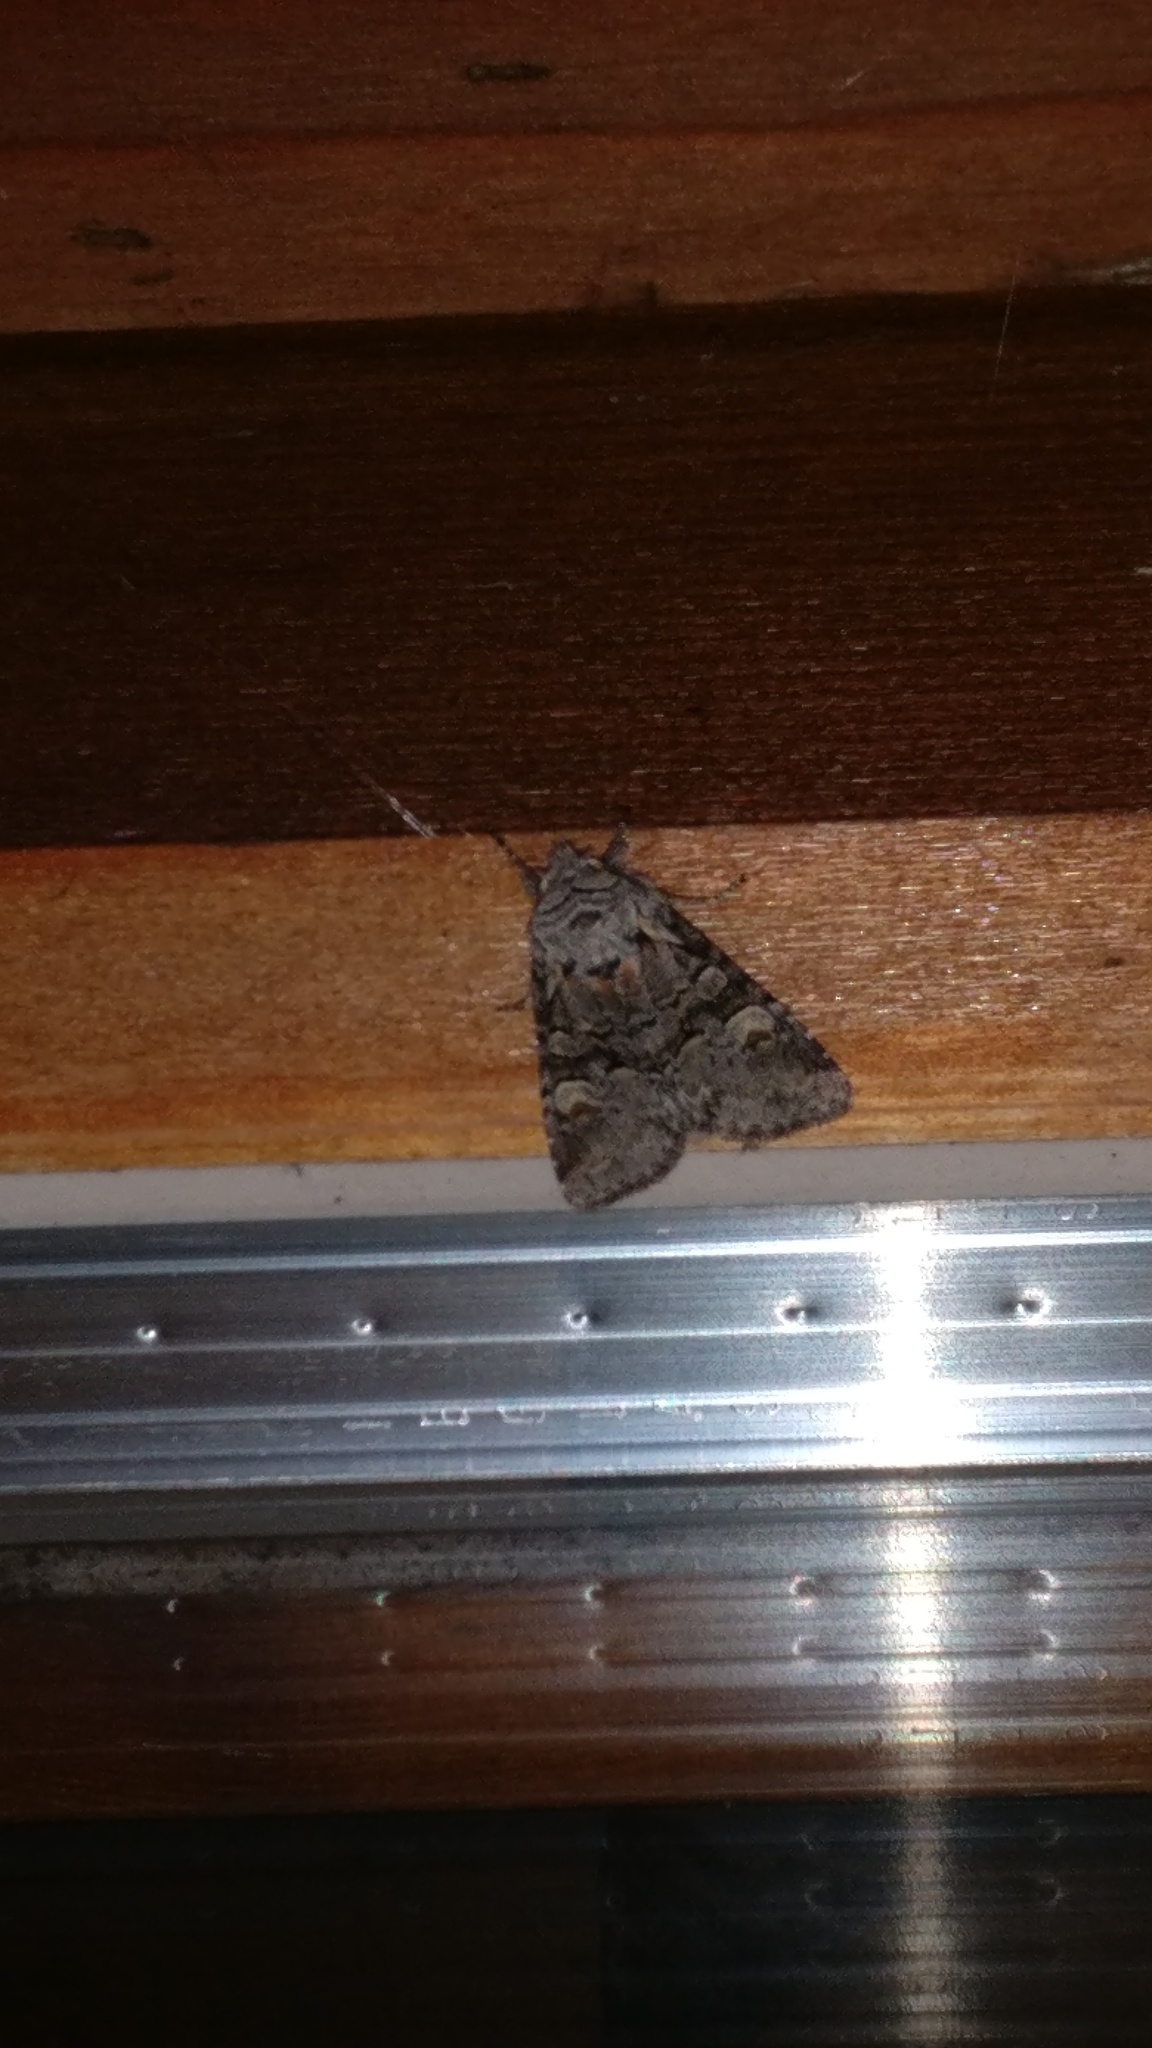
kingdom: Animalia
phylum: Arthropoda
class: Insecta
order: Lepidoptera
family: Noctuidae
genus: Brachylomia
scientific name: Brachylomia viminalis
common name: Minor shoulder-knot
